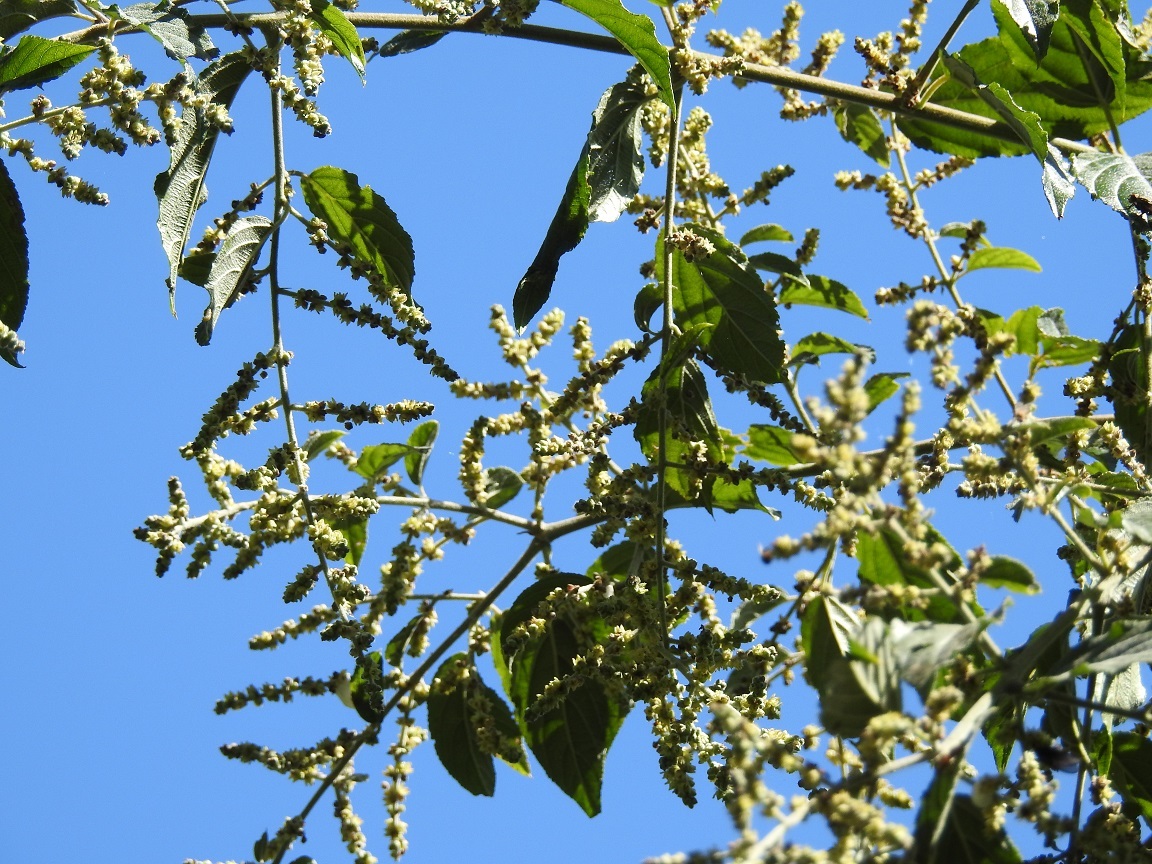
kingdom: Plantae
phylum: Tracheophyta
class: Magnoliopsida
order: Rosales
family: Rhamnaceae
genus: Sageretia
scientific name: Sageretia elegans
